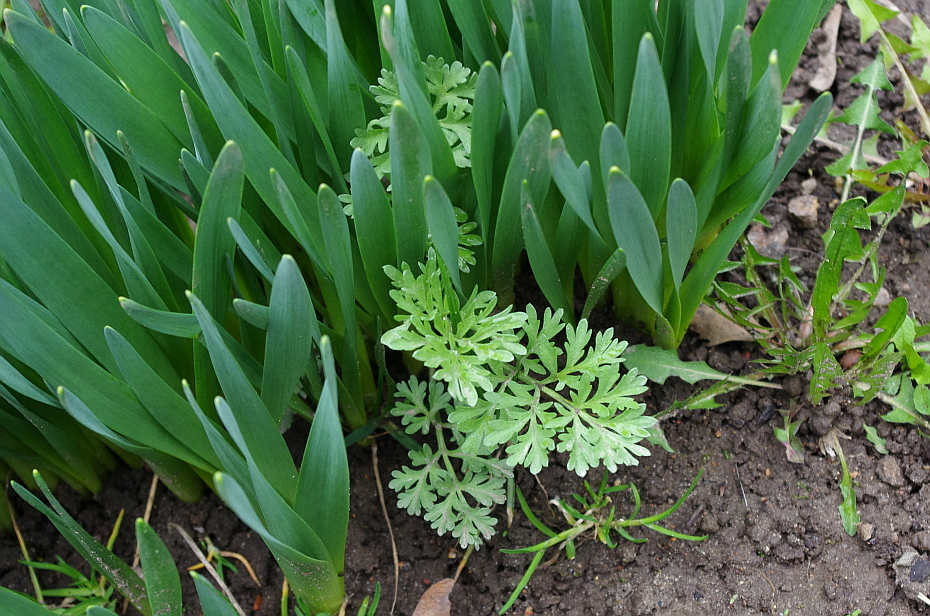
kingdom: Plantae
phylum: Tracheophyta
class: Magnoliopsida
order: Asterales
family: Asteraceae
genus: Artemisia
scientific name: Artemisia absinthium
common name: Wormwood
